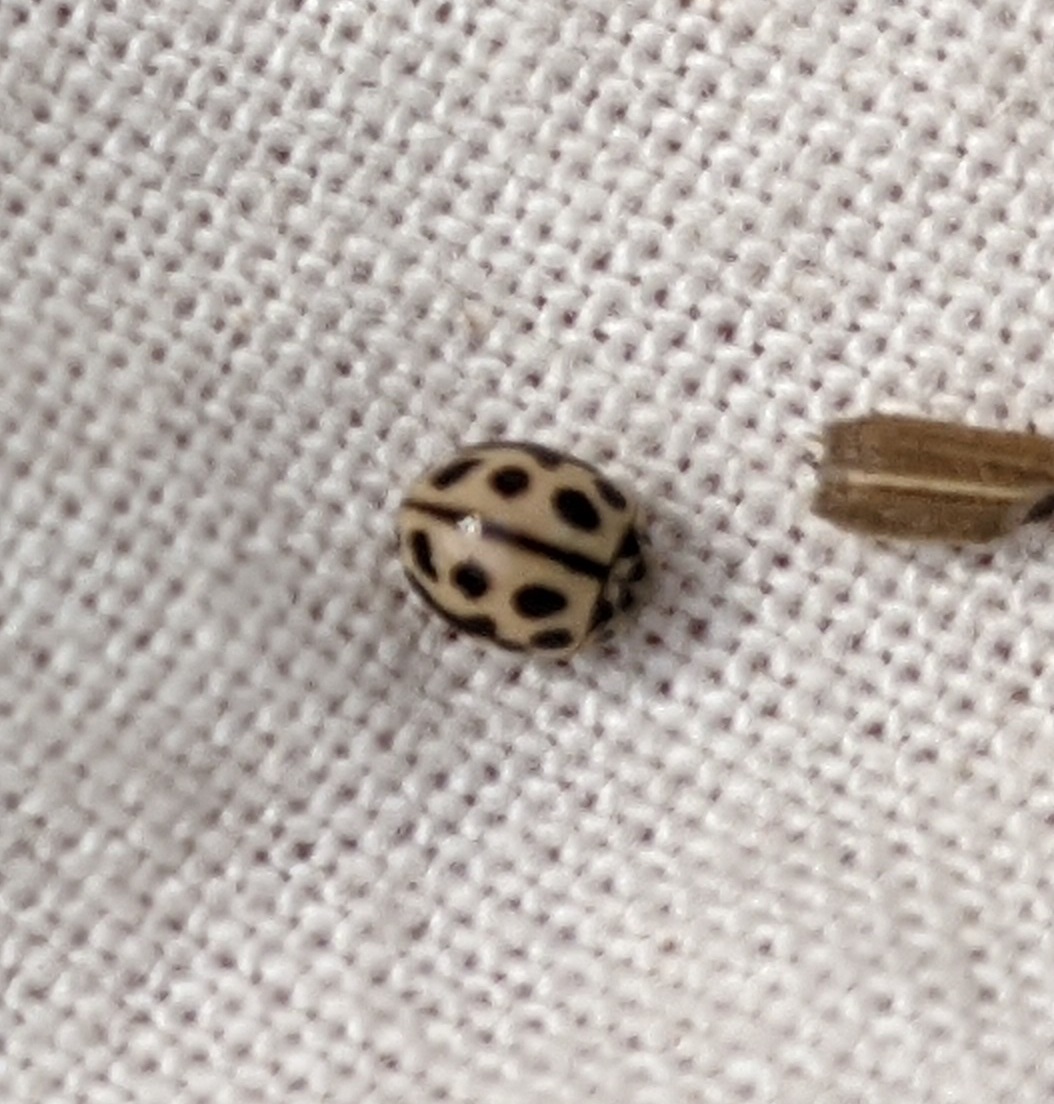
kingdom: Animalia
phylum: Arthropoda
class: Insecta
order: Coleoptera
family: Coccinellidae
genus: Tytthaspis
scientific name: Tytthaspis sedecimpunctata
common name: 16-spot ladybird
